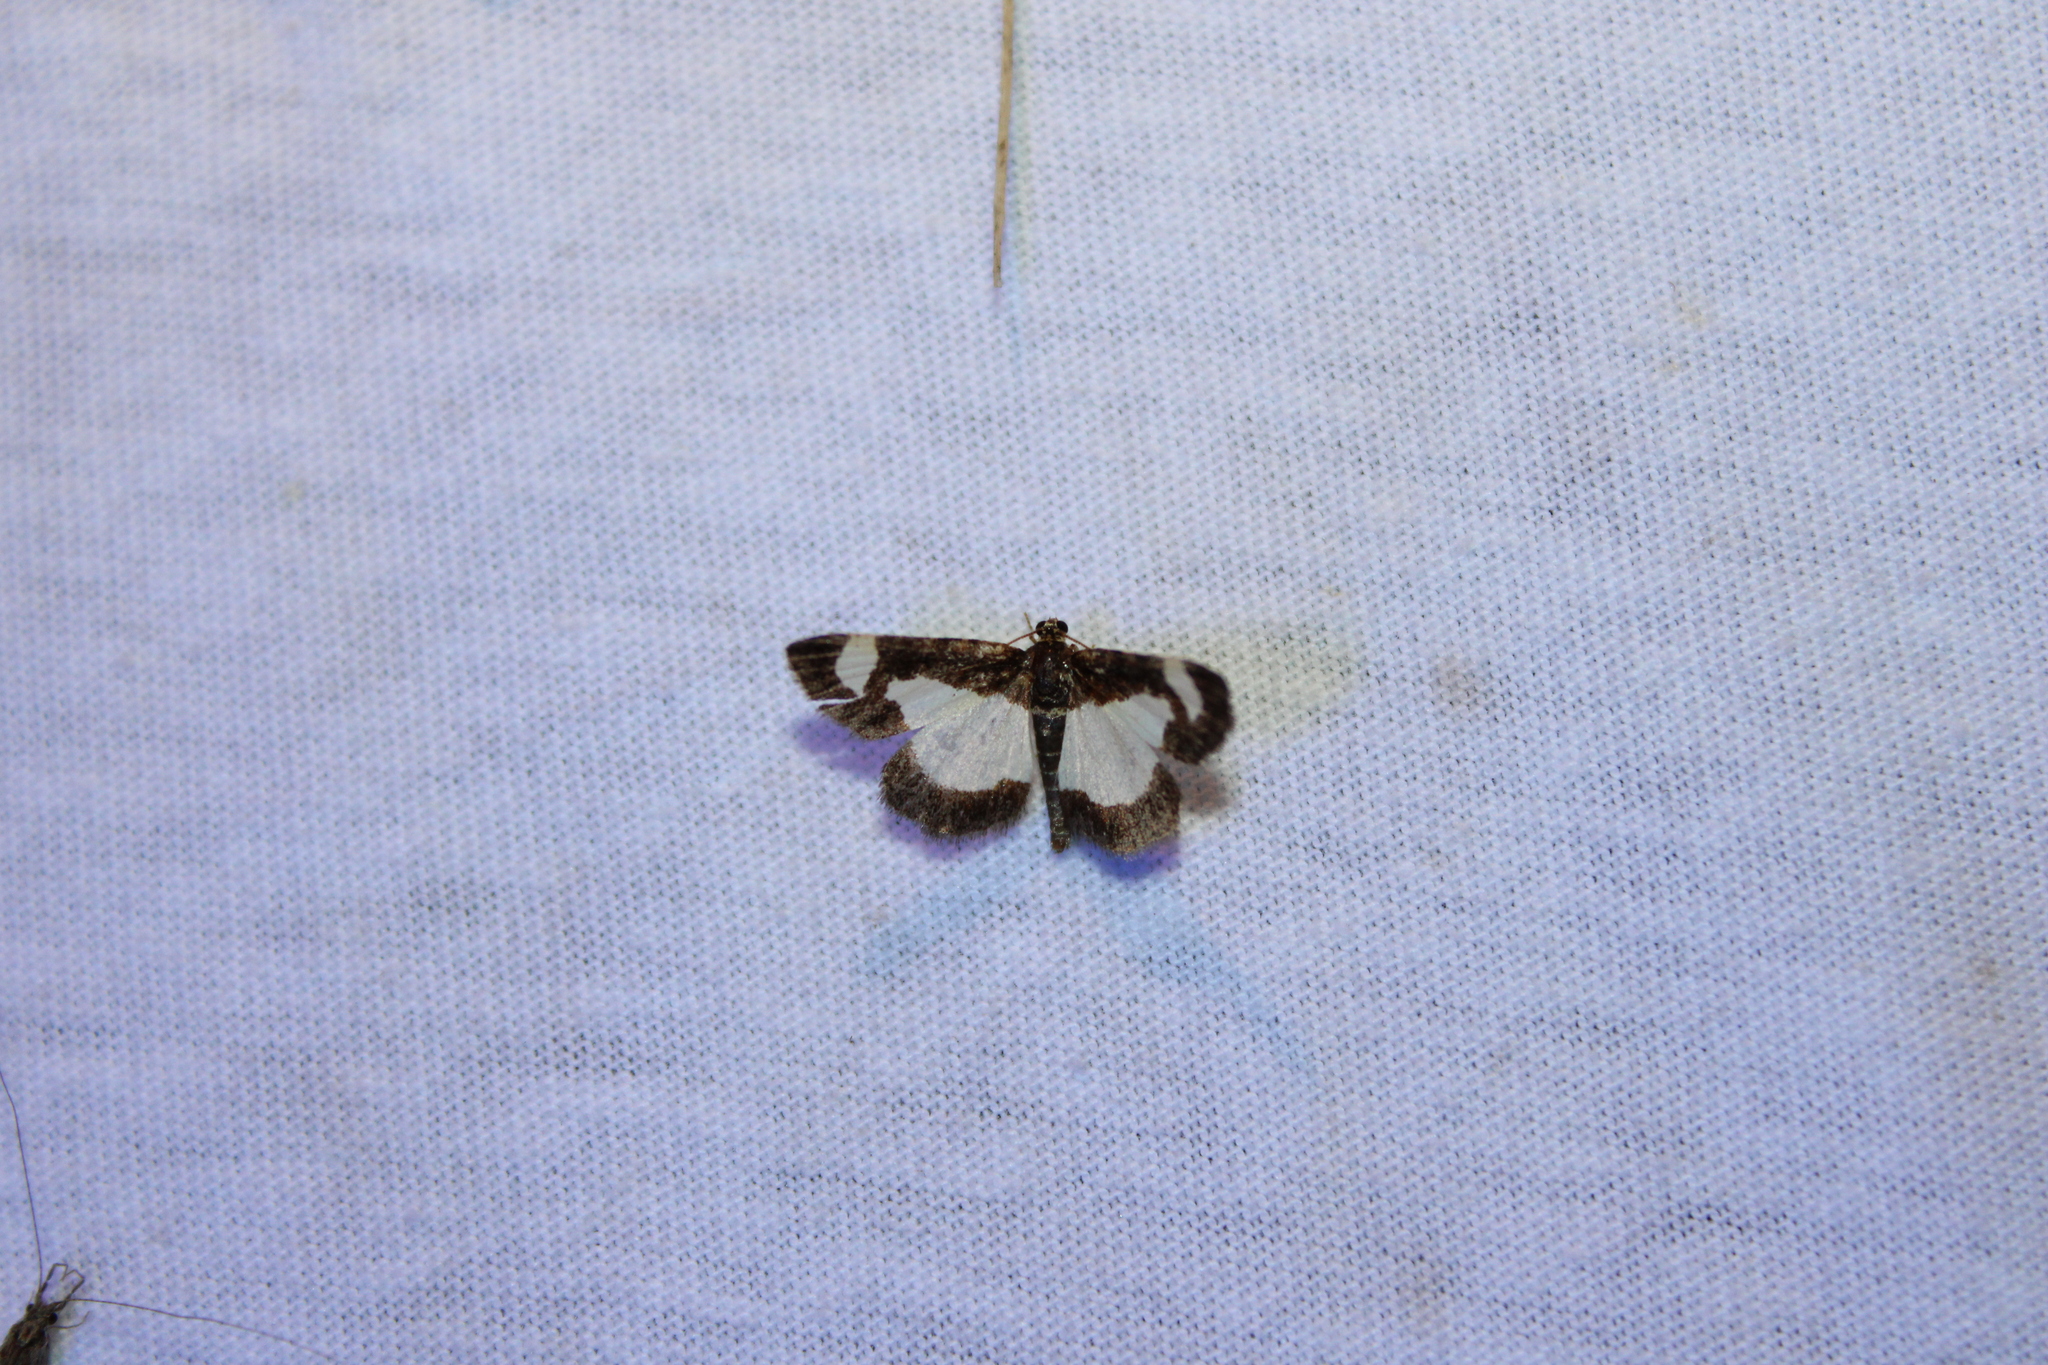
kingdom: Animalia
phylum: Arthropoda
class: Insecta
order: Lepidoptera
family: Geometridae
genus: Heliomata
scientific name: Heliomata cycladata
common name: Common spring moth
